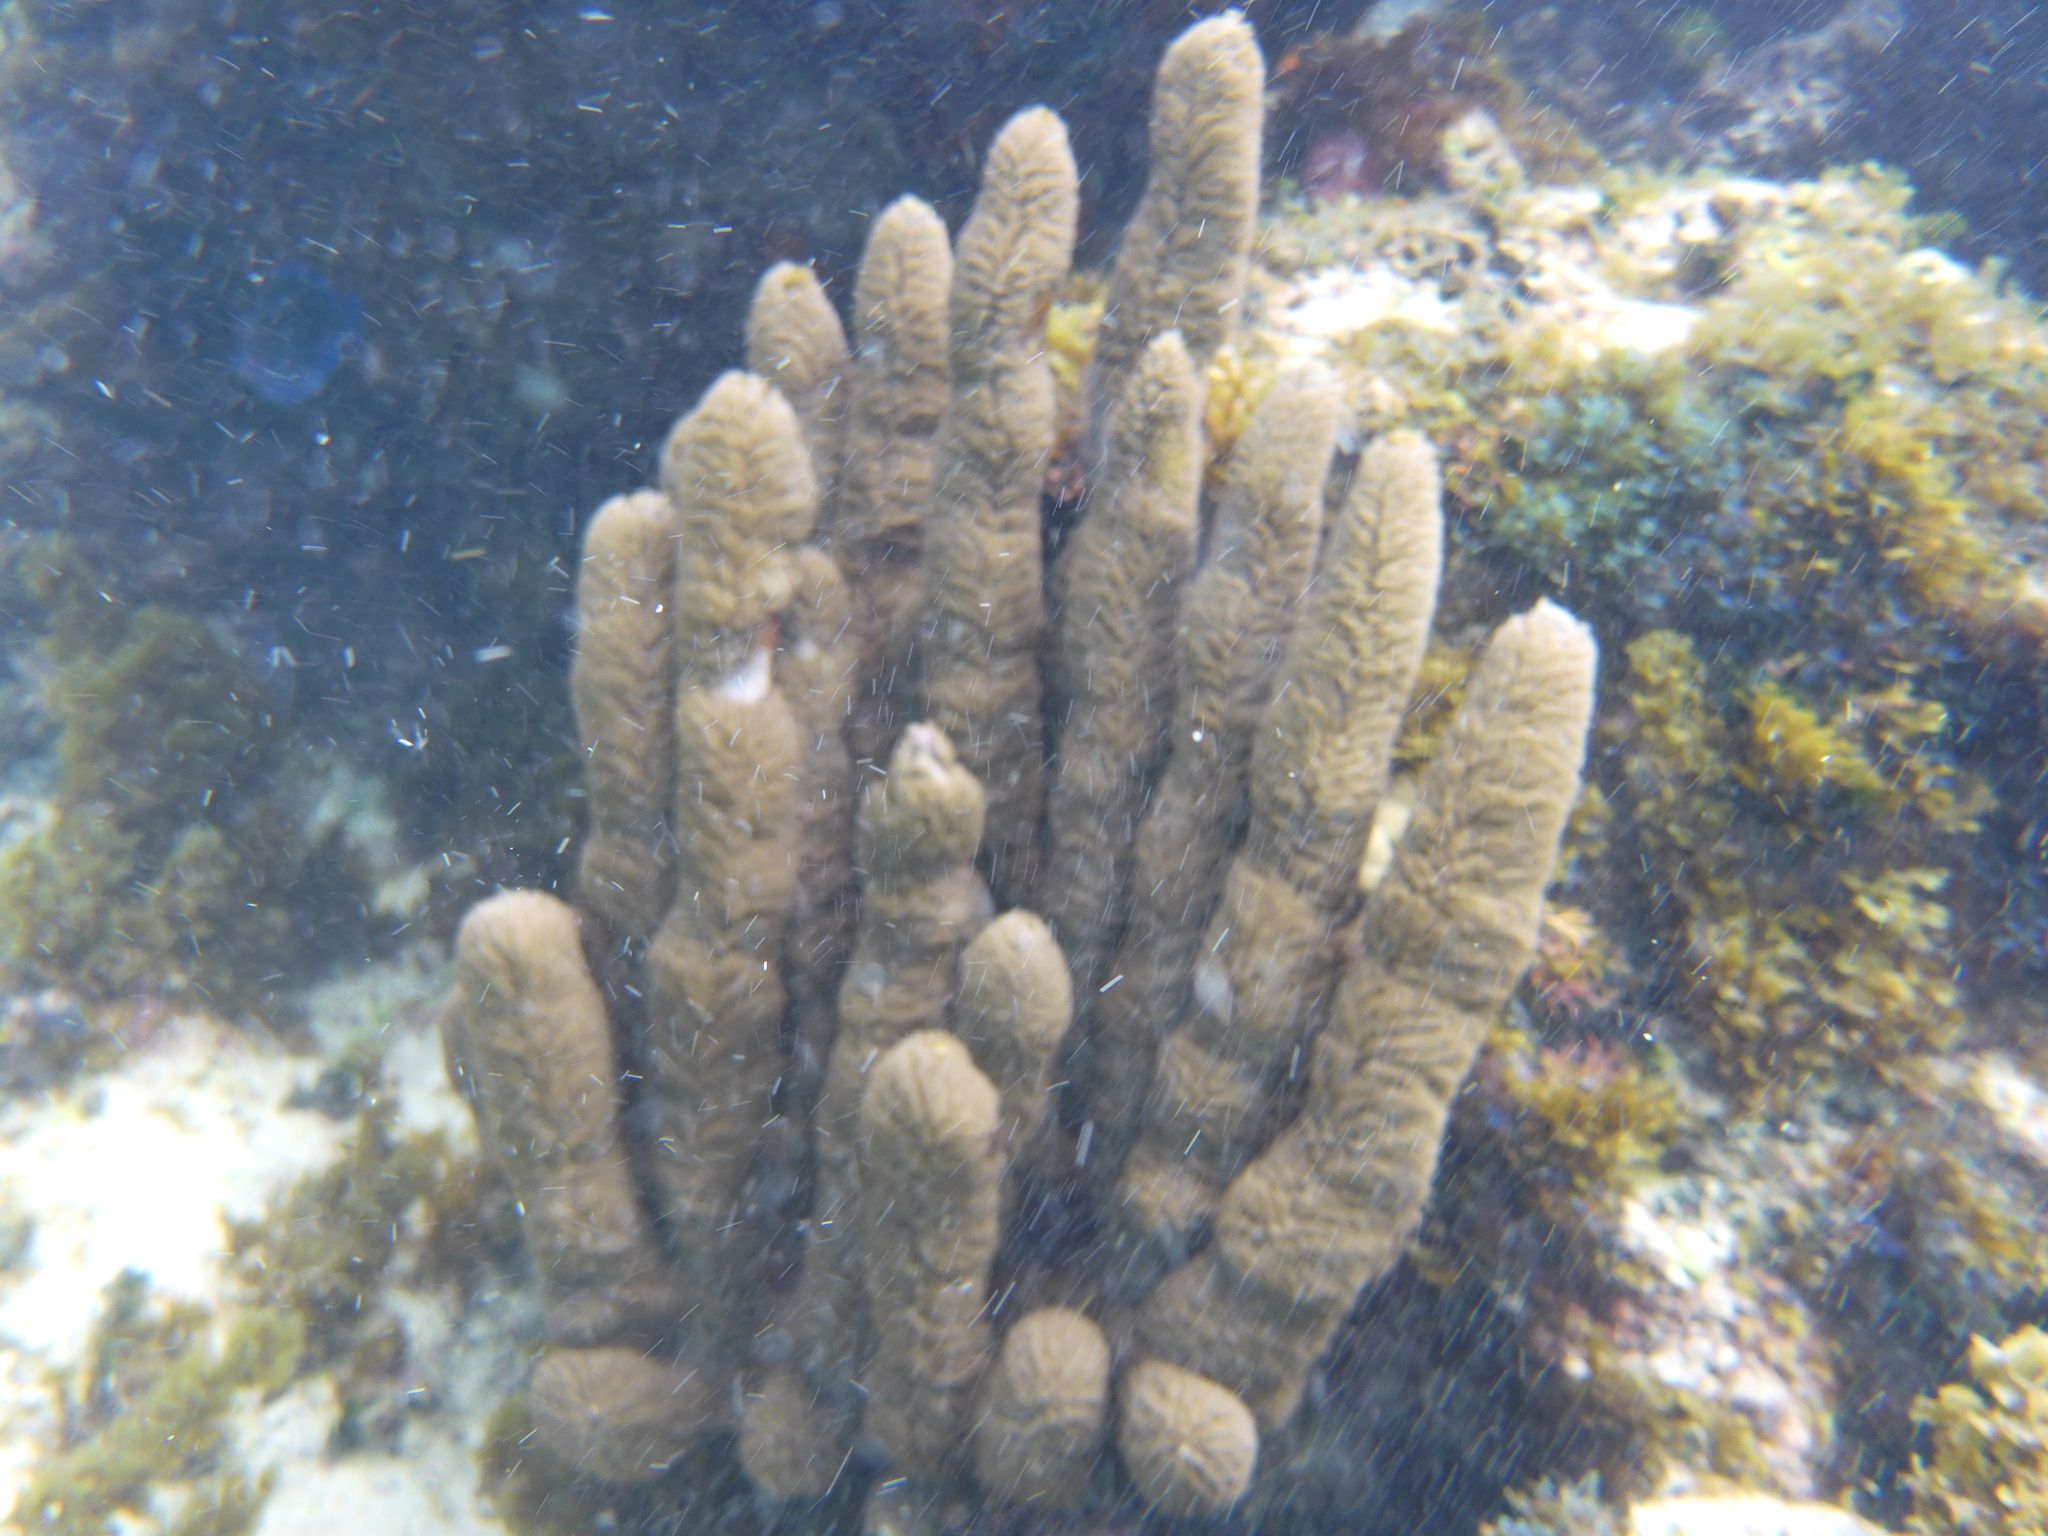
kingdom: Animalia
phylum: Cnidaria
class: Anthozoa
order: Scleralcyonacea
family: Briareidae
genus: Briareum
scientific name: Briareum asbestinum
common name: Corky sea finger
